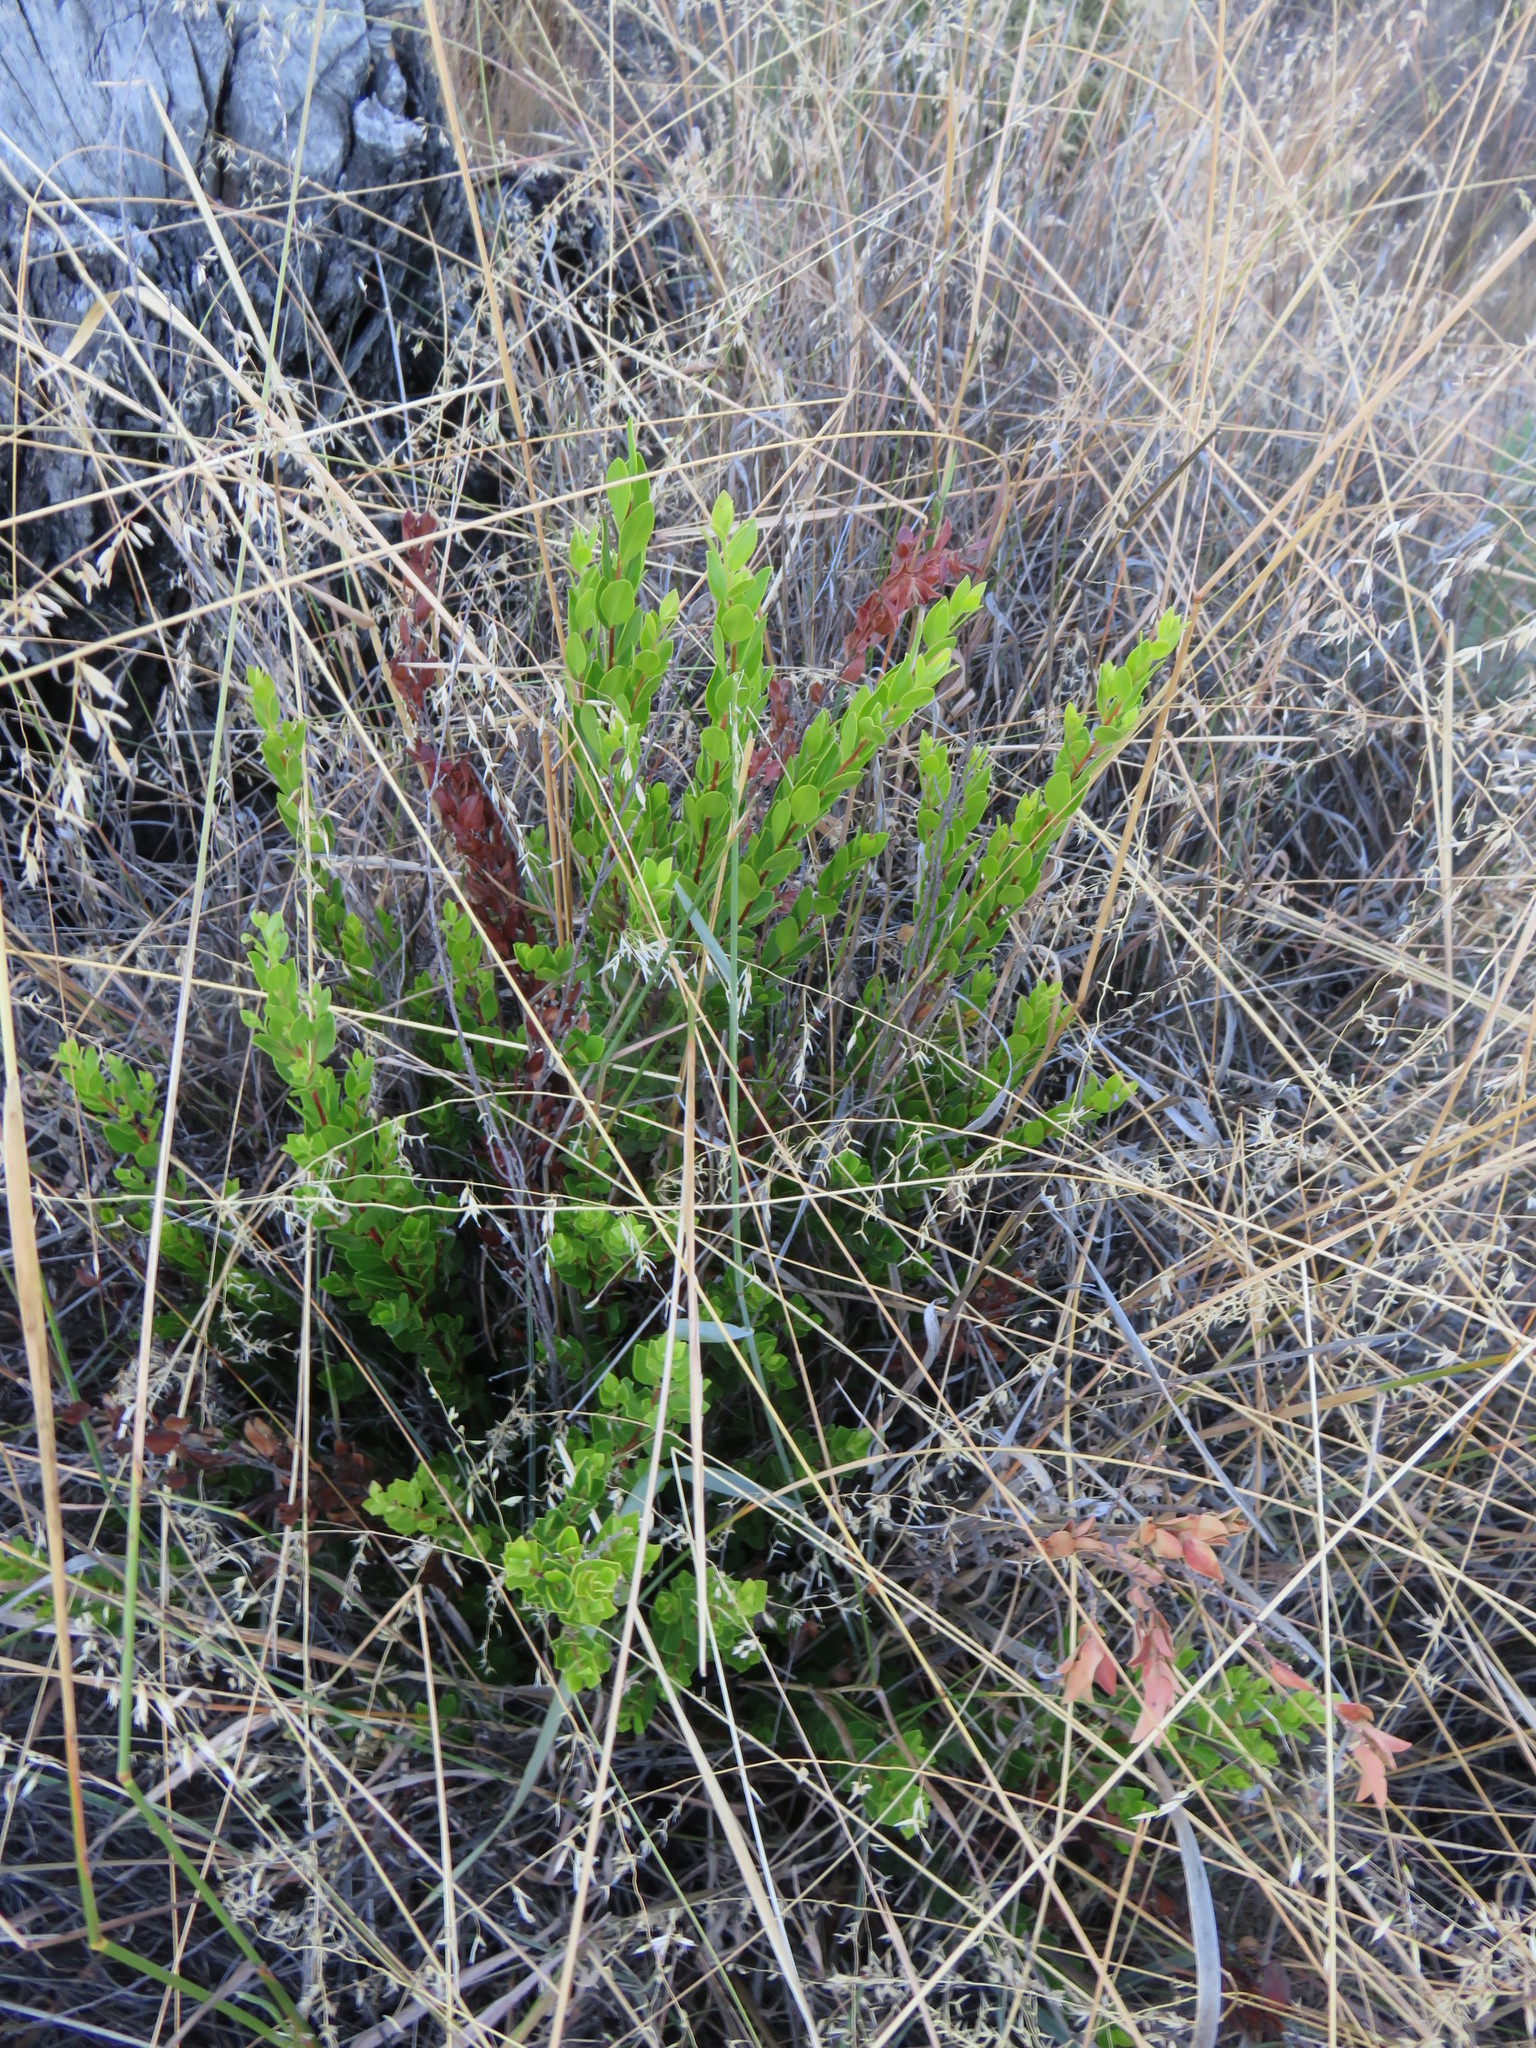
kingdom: Plantae
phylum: Tracheophyta
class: Magnoliopsida
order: Ericales
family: Ebenaceae
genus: Diospyros
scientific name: Diospyros glabra
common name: Fynbos star apple
